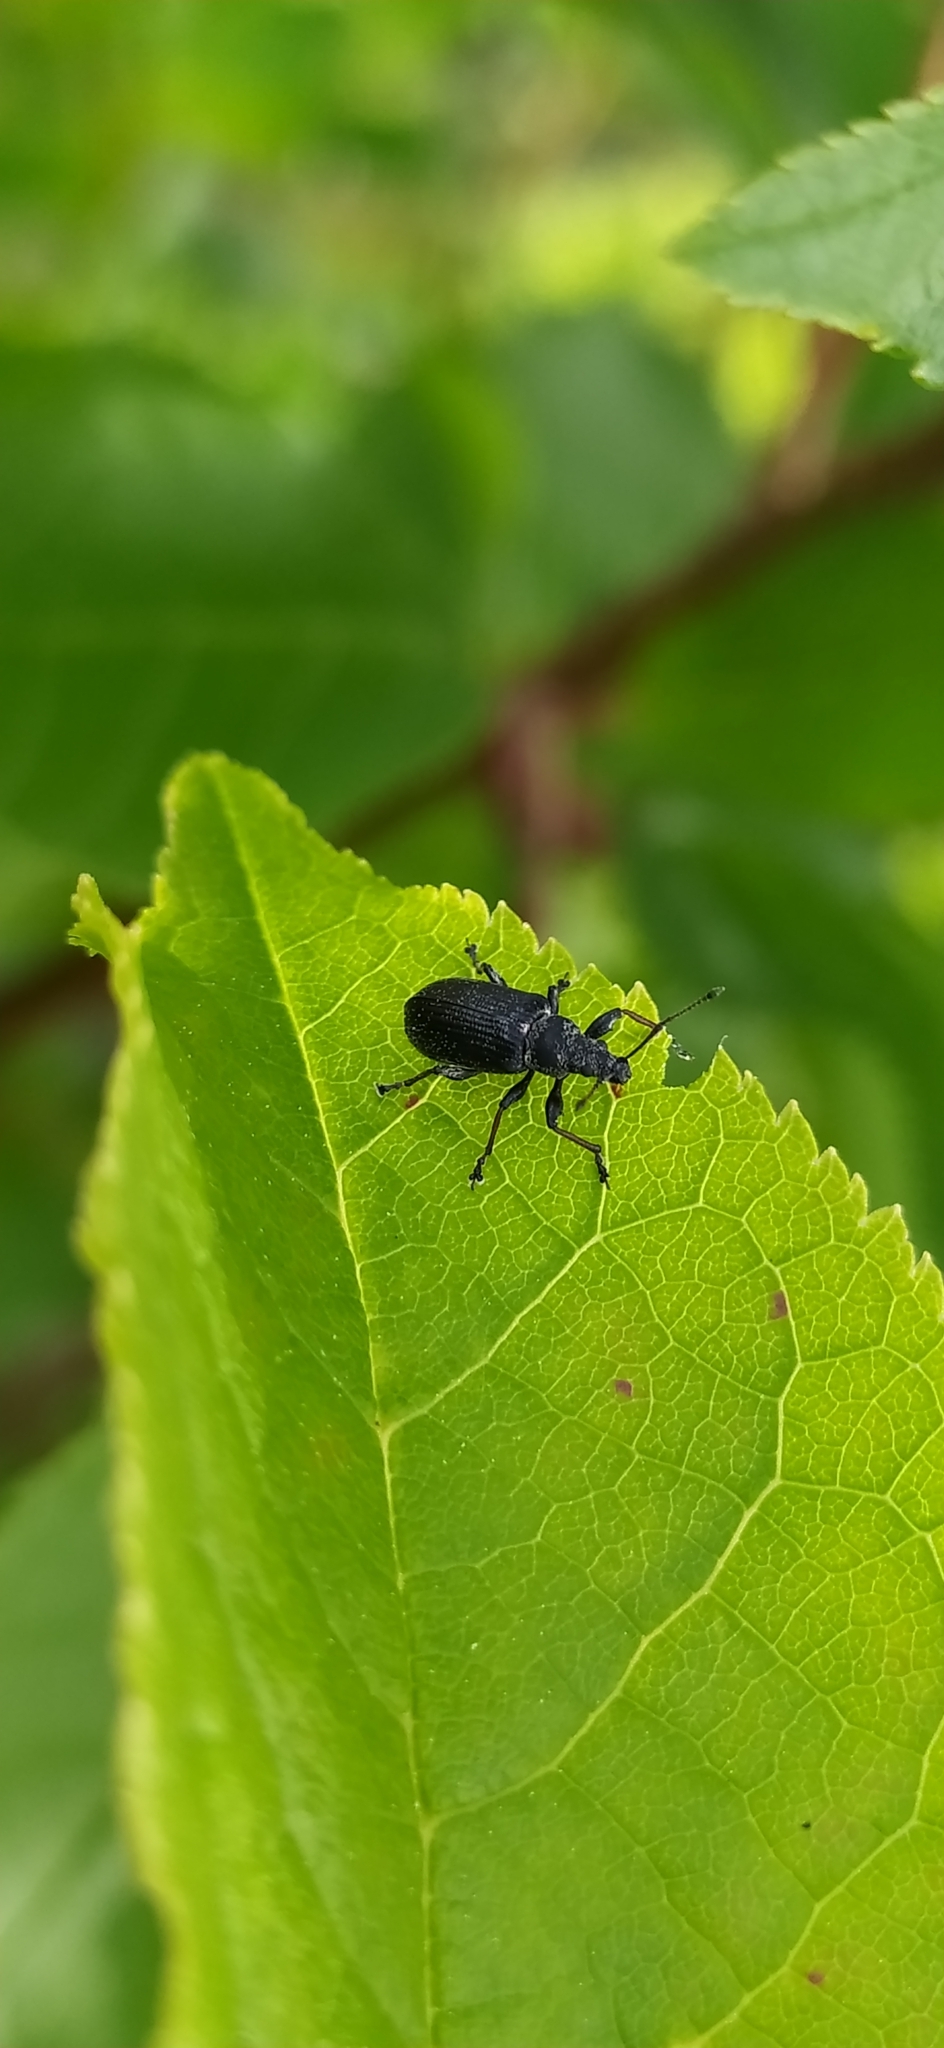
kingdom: Animalia
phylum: Arthropoda
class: Insecta
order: Coleoptera
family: Curculionidae
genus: Phyllobius
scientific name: Phyllobius pyri
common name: Common leaf weevil
